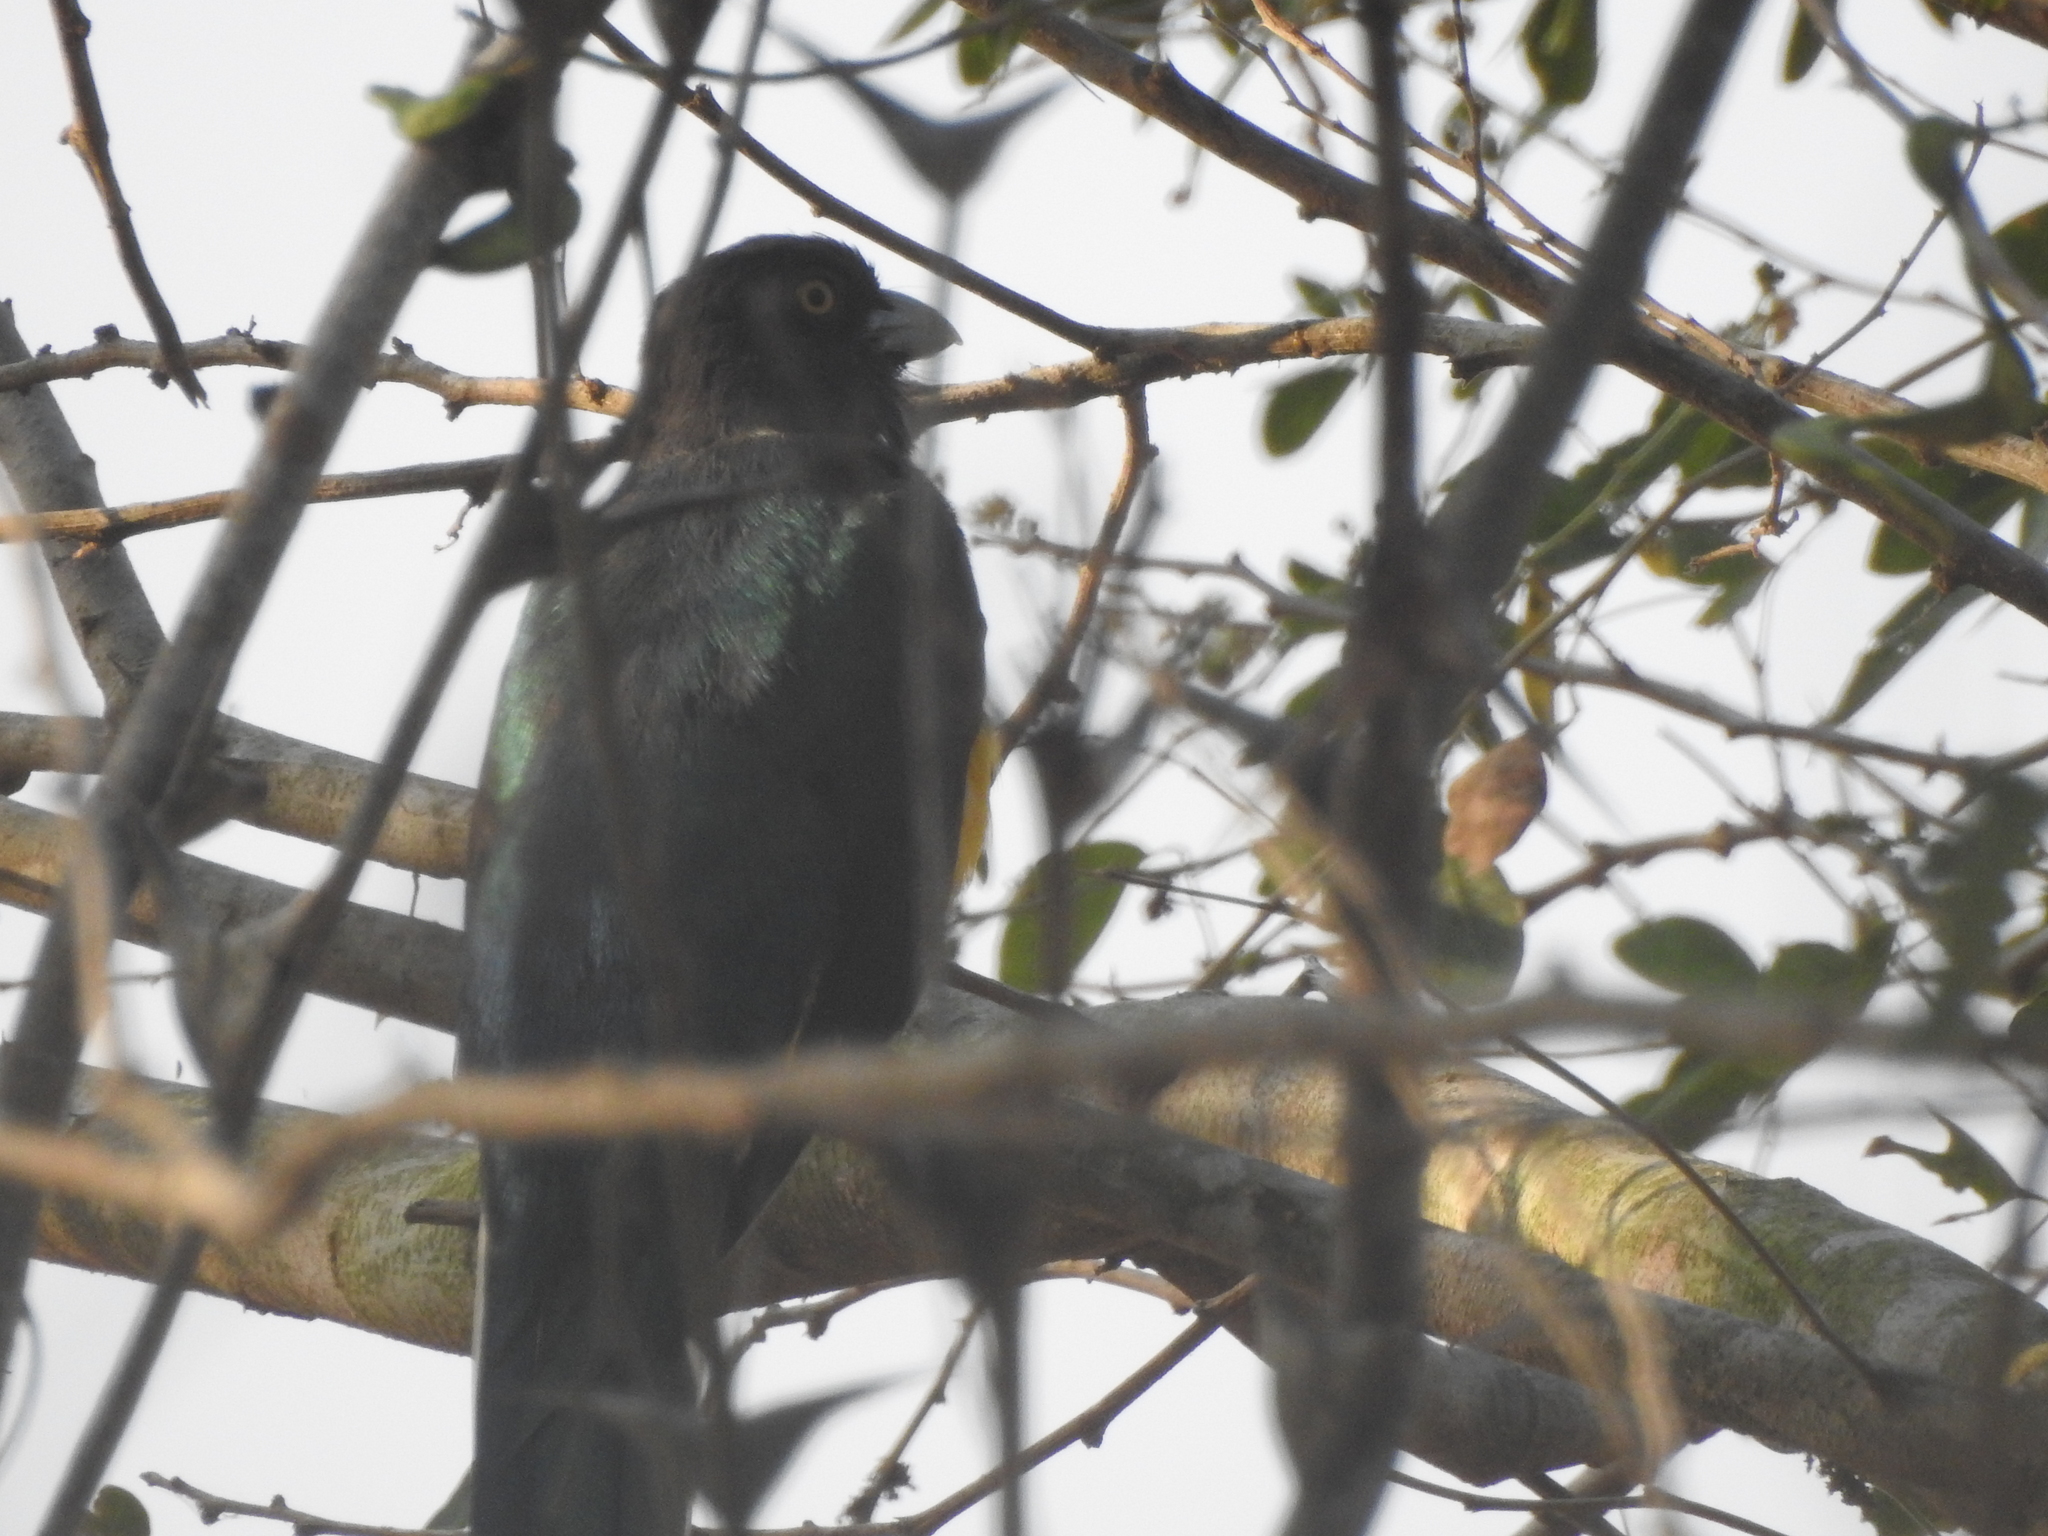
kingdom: Animalia
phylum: Chordata
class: Aves
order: Trogoniformes
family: Trogonidae
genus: Trogon
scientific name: Trogon citreolus
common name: Citreoline trogon
